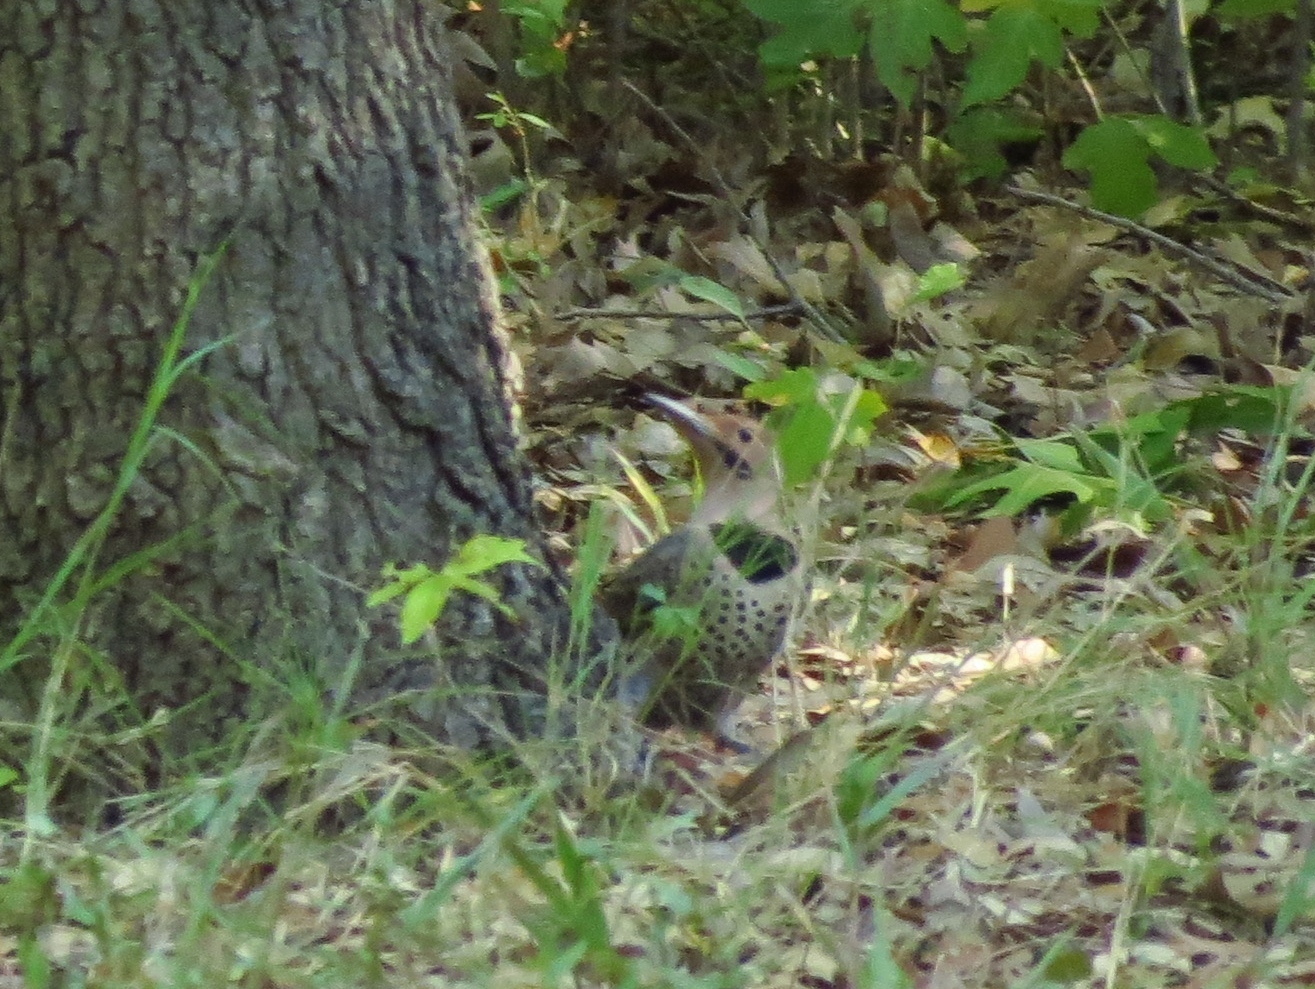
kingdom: Animalia
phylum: Chordata
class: Aves
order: Piciformes
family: Picidae
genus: Colaptes
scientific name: Colaptes auratus
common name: Northern flicker
